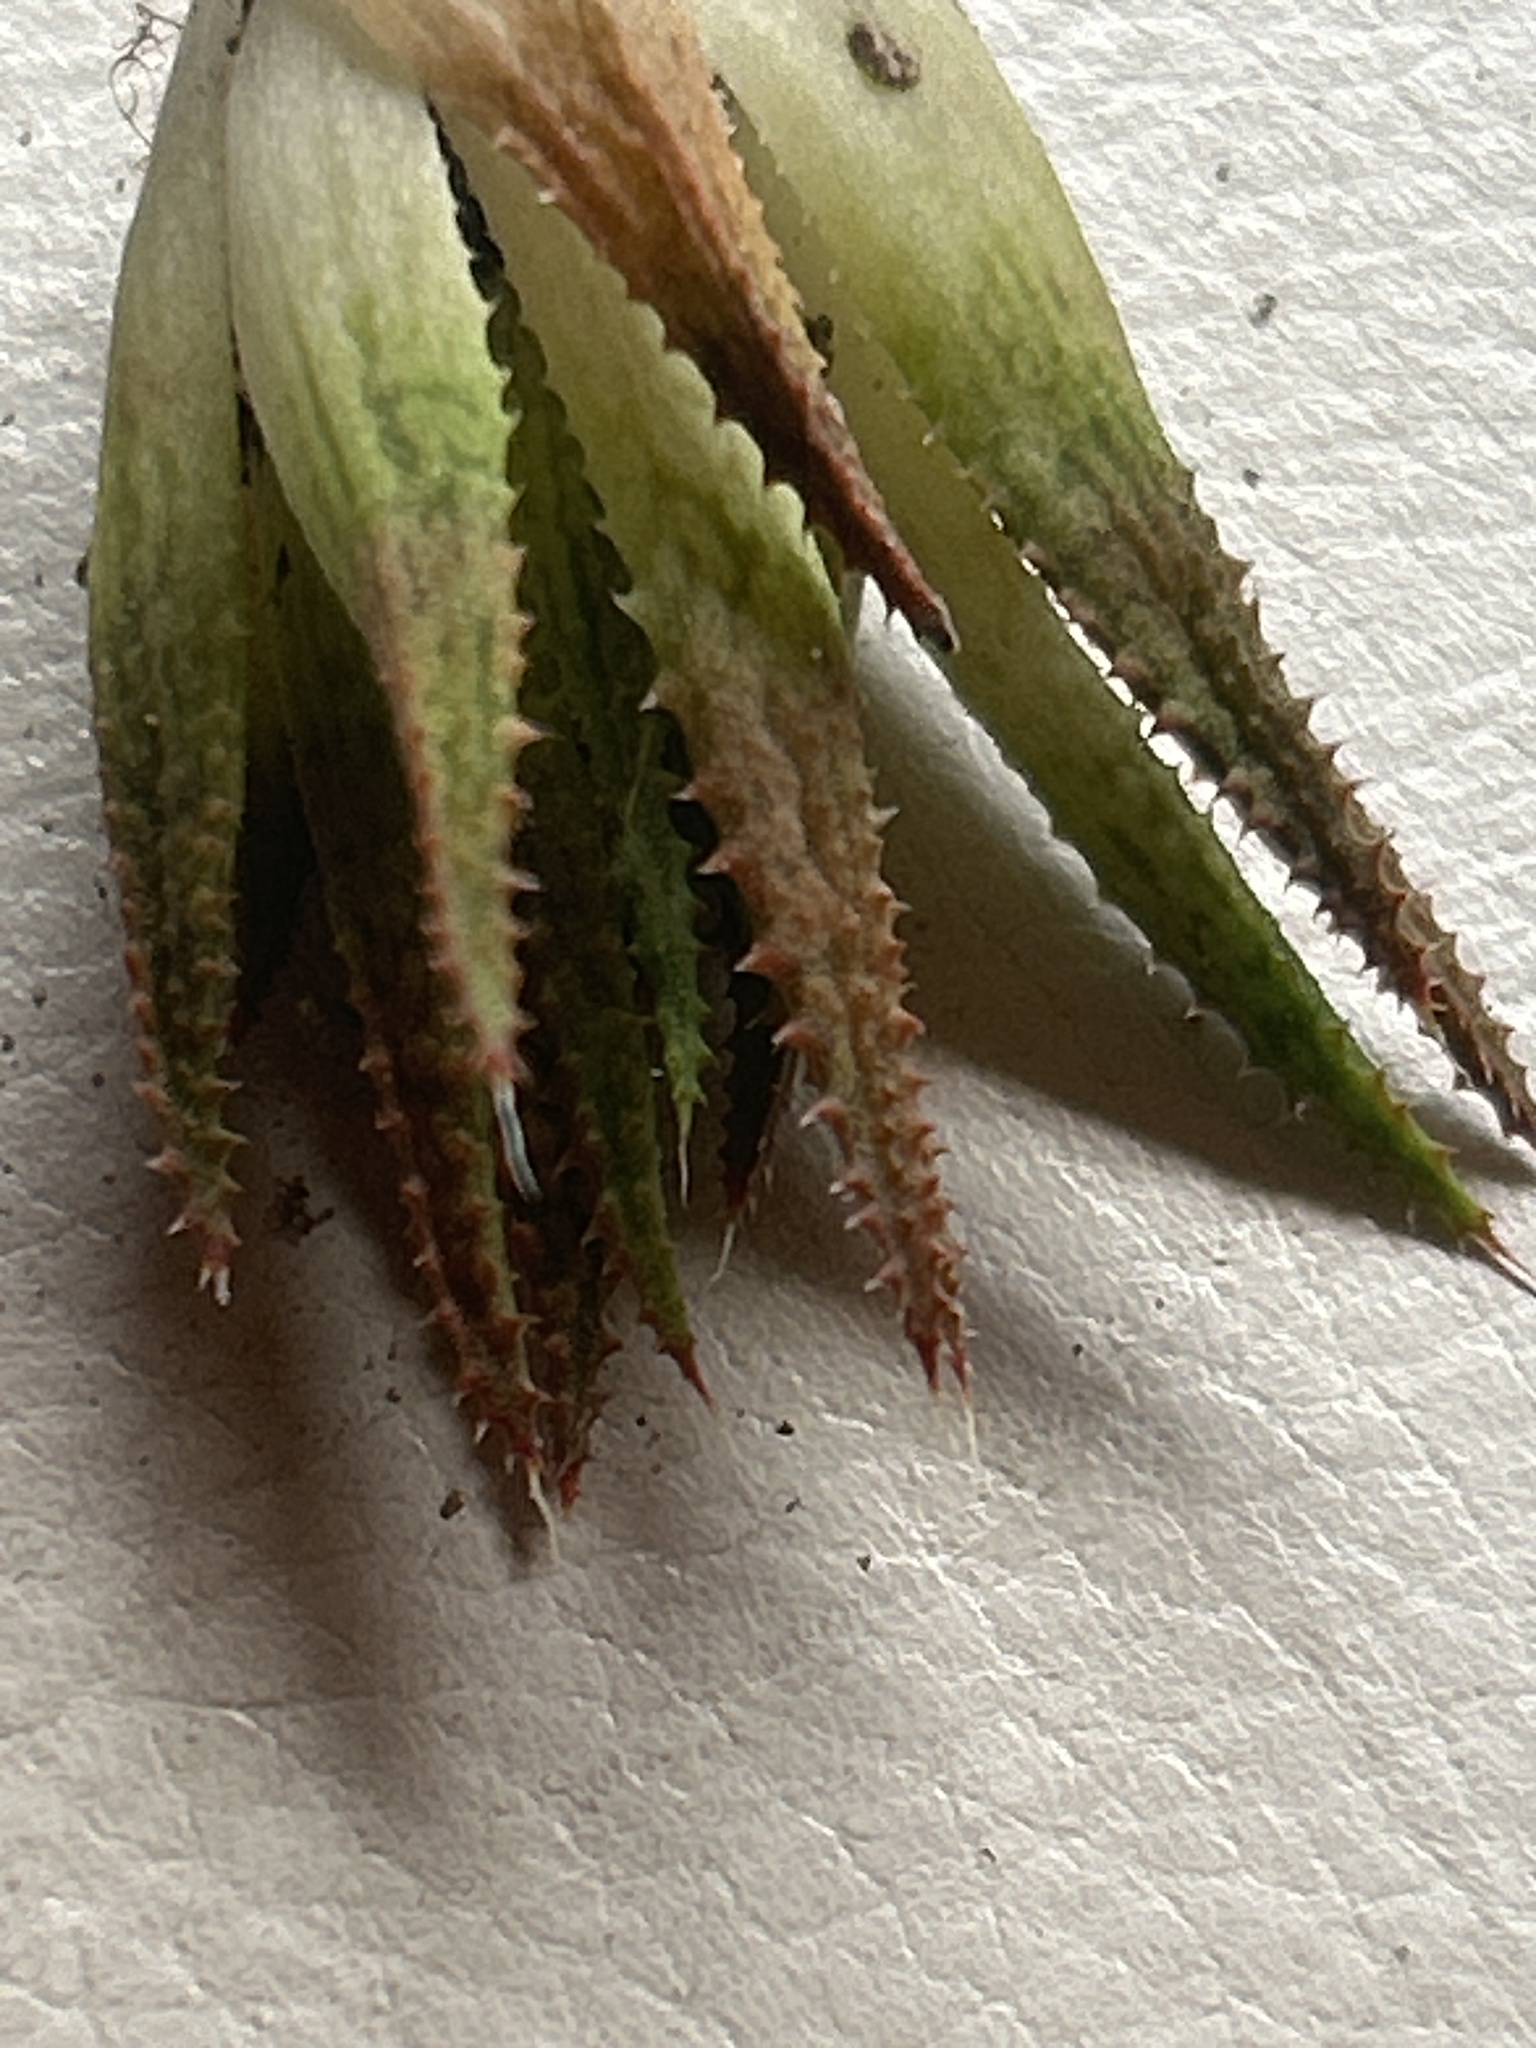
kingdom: Plantae
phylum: Tracheophyta
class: Liliopsida
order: Asparagales
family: Asphodelaceae
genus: Haworthia
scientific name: Haworthia variegata
